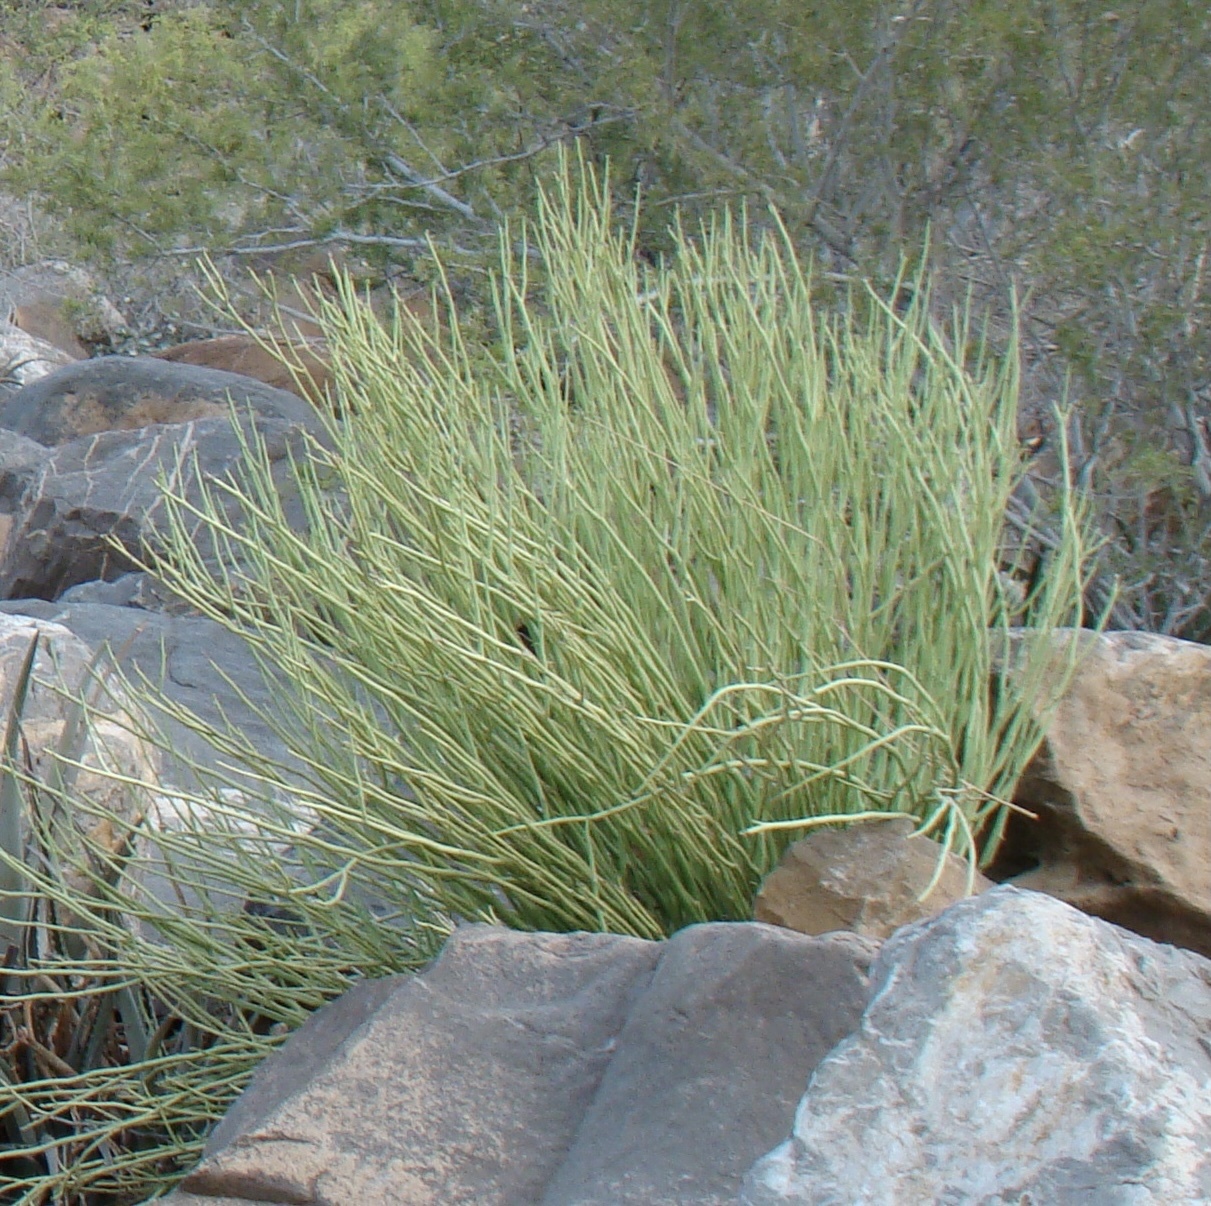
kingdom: Plantae
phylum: Tracheophyta
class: Magnoliopsida
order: Malpighiales
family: Euphorbiaceae
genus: Euphorbia
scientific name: Euphorbia larica
